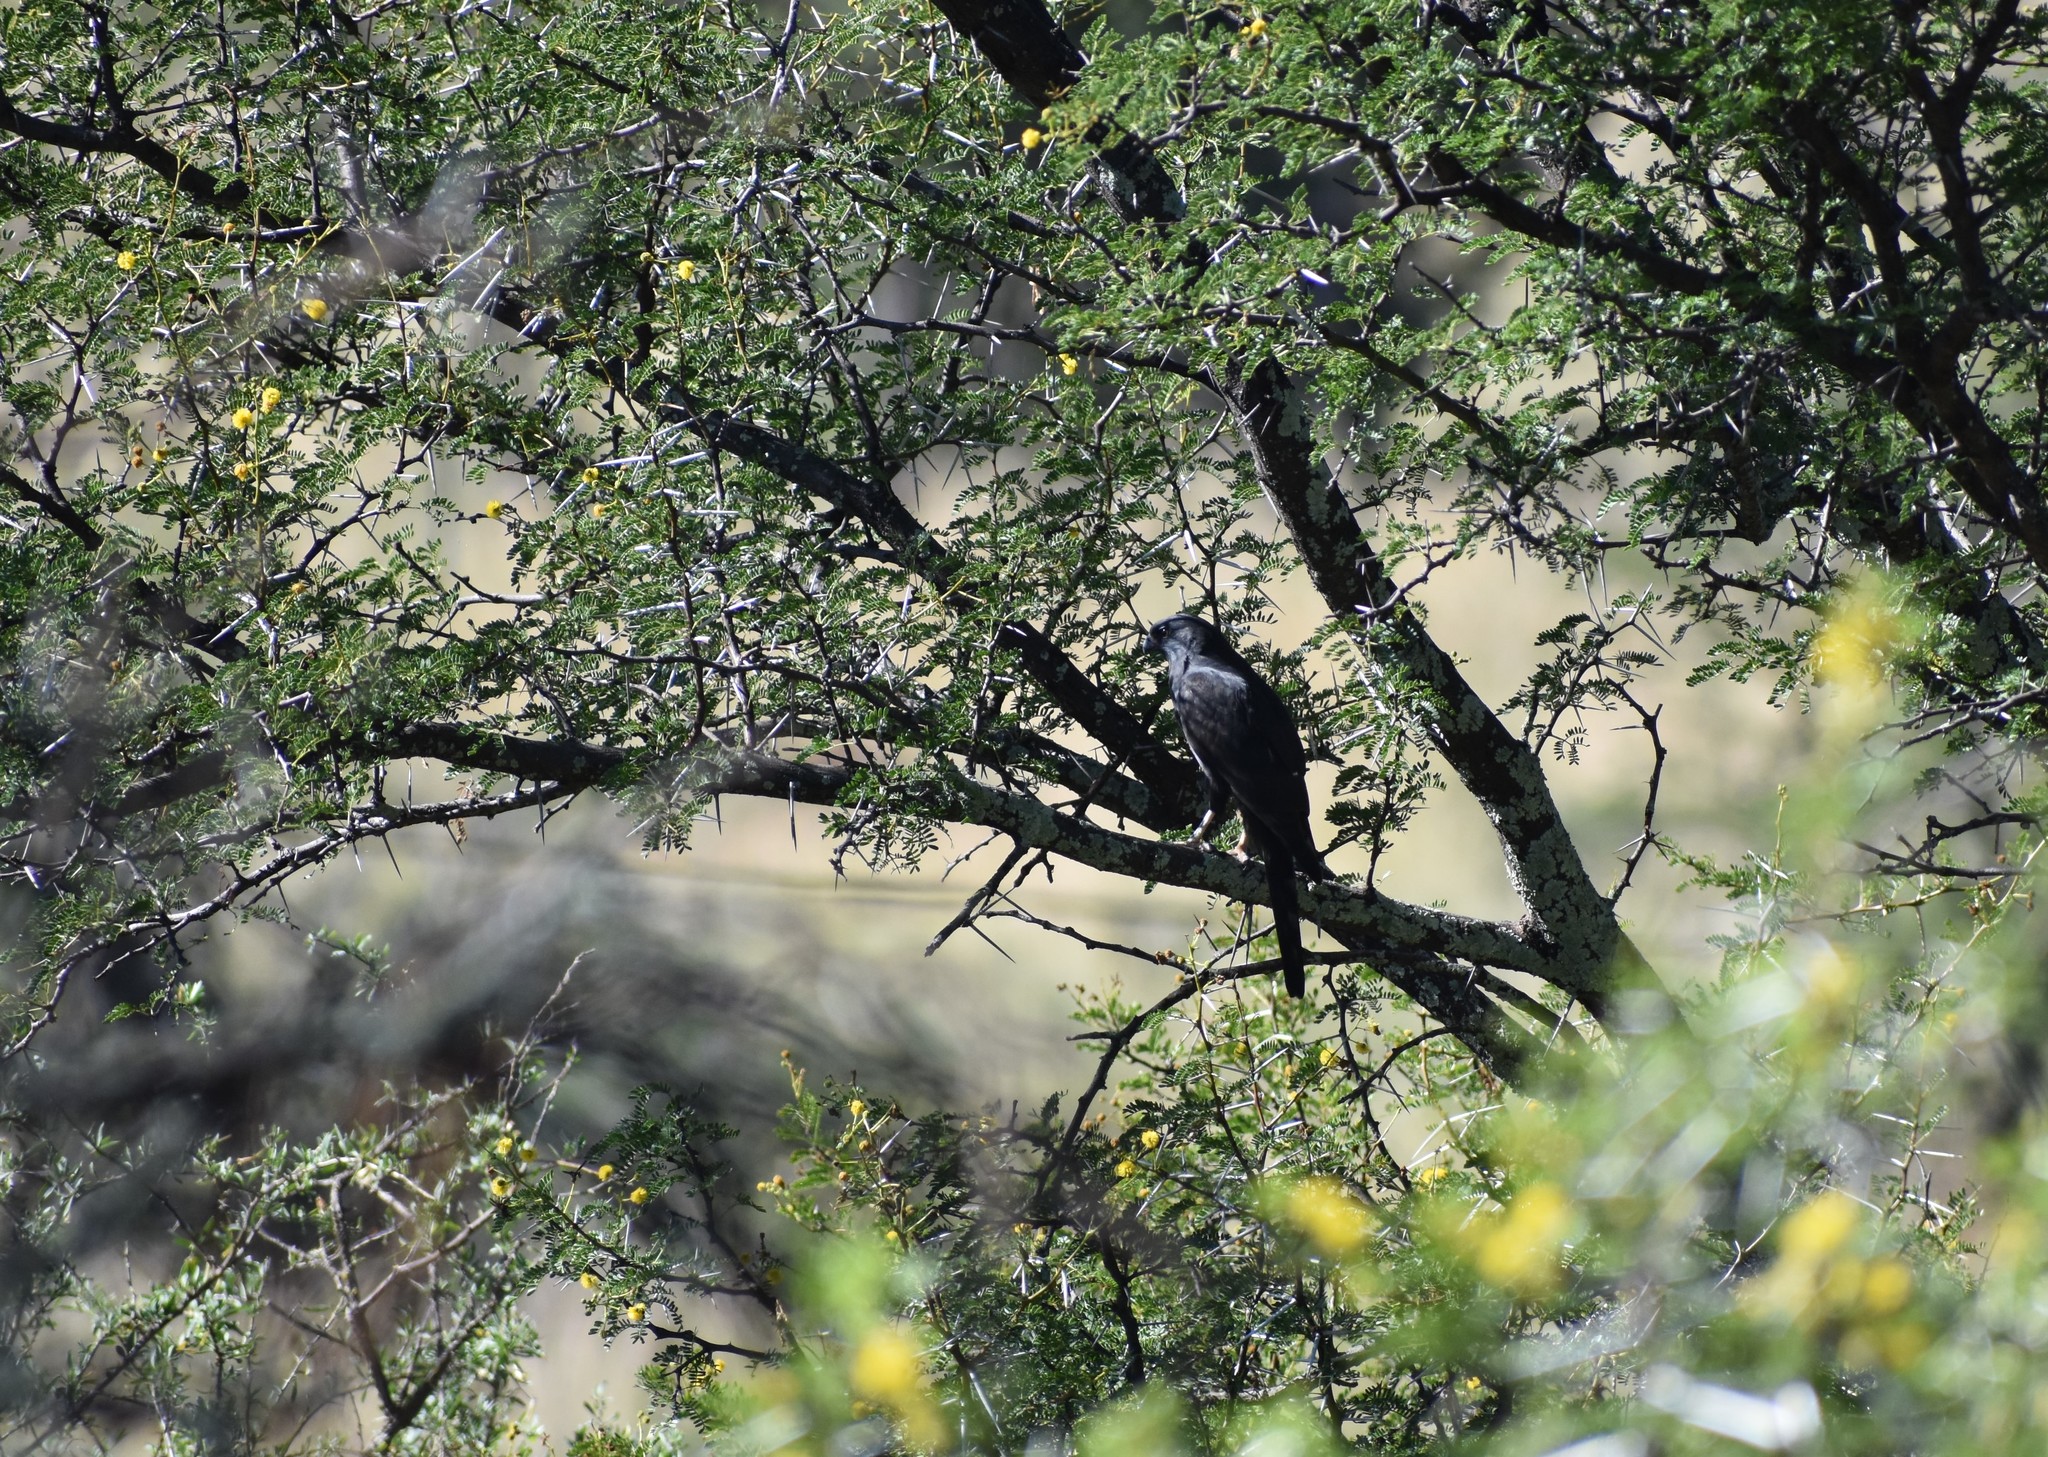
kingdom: Animalia
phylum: Chordata
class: Aves
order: Accipitriformes
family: Accipitridae
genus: Micronisus
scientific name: Micronisus gabar
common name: Gabar goshawk
